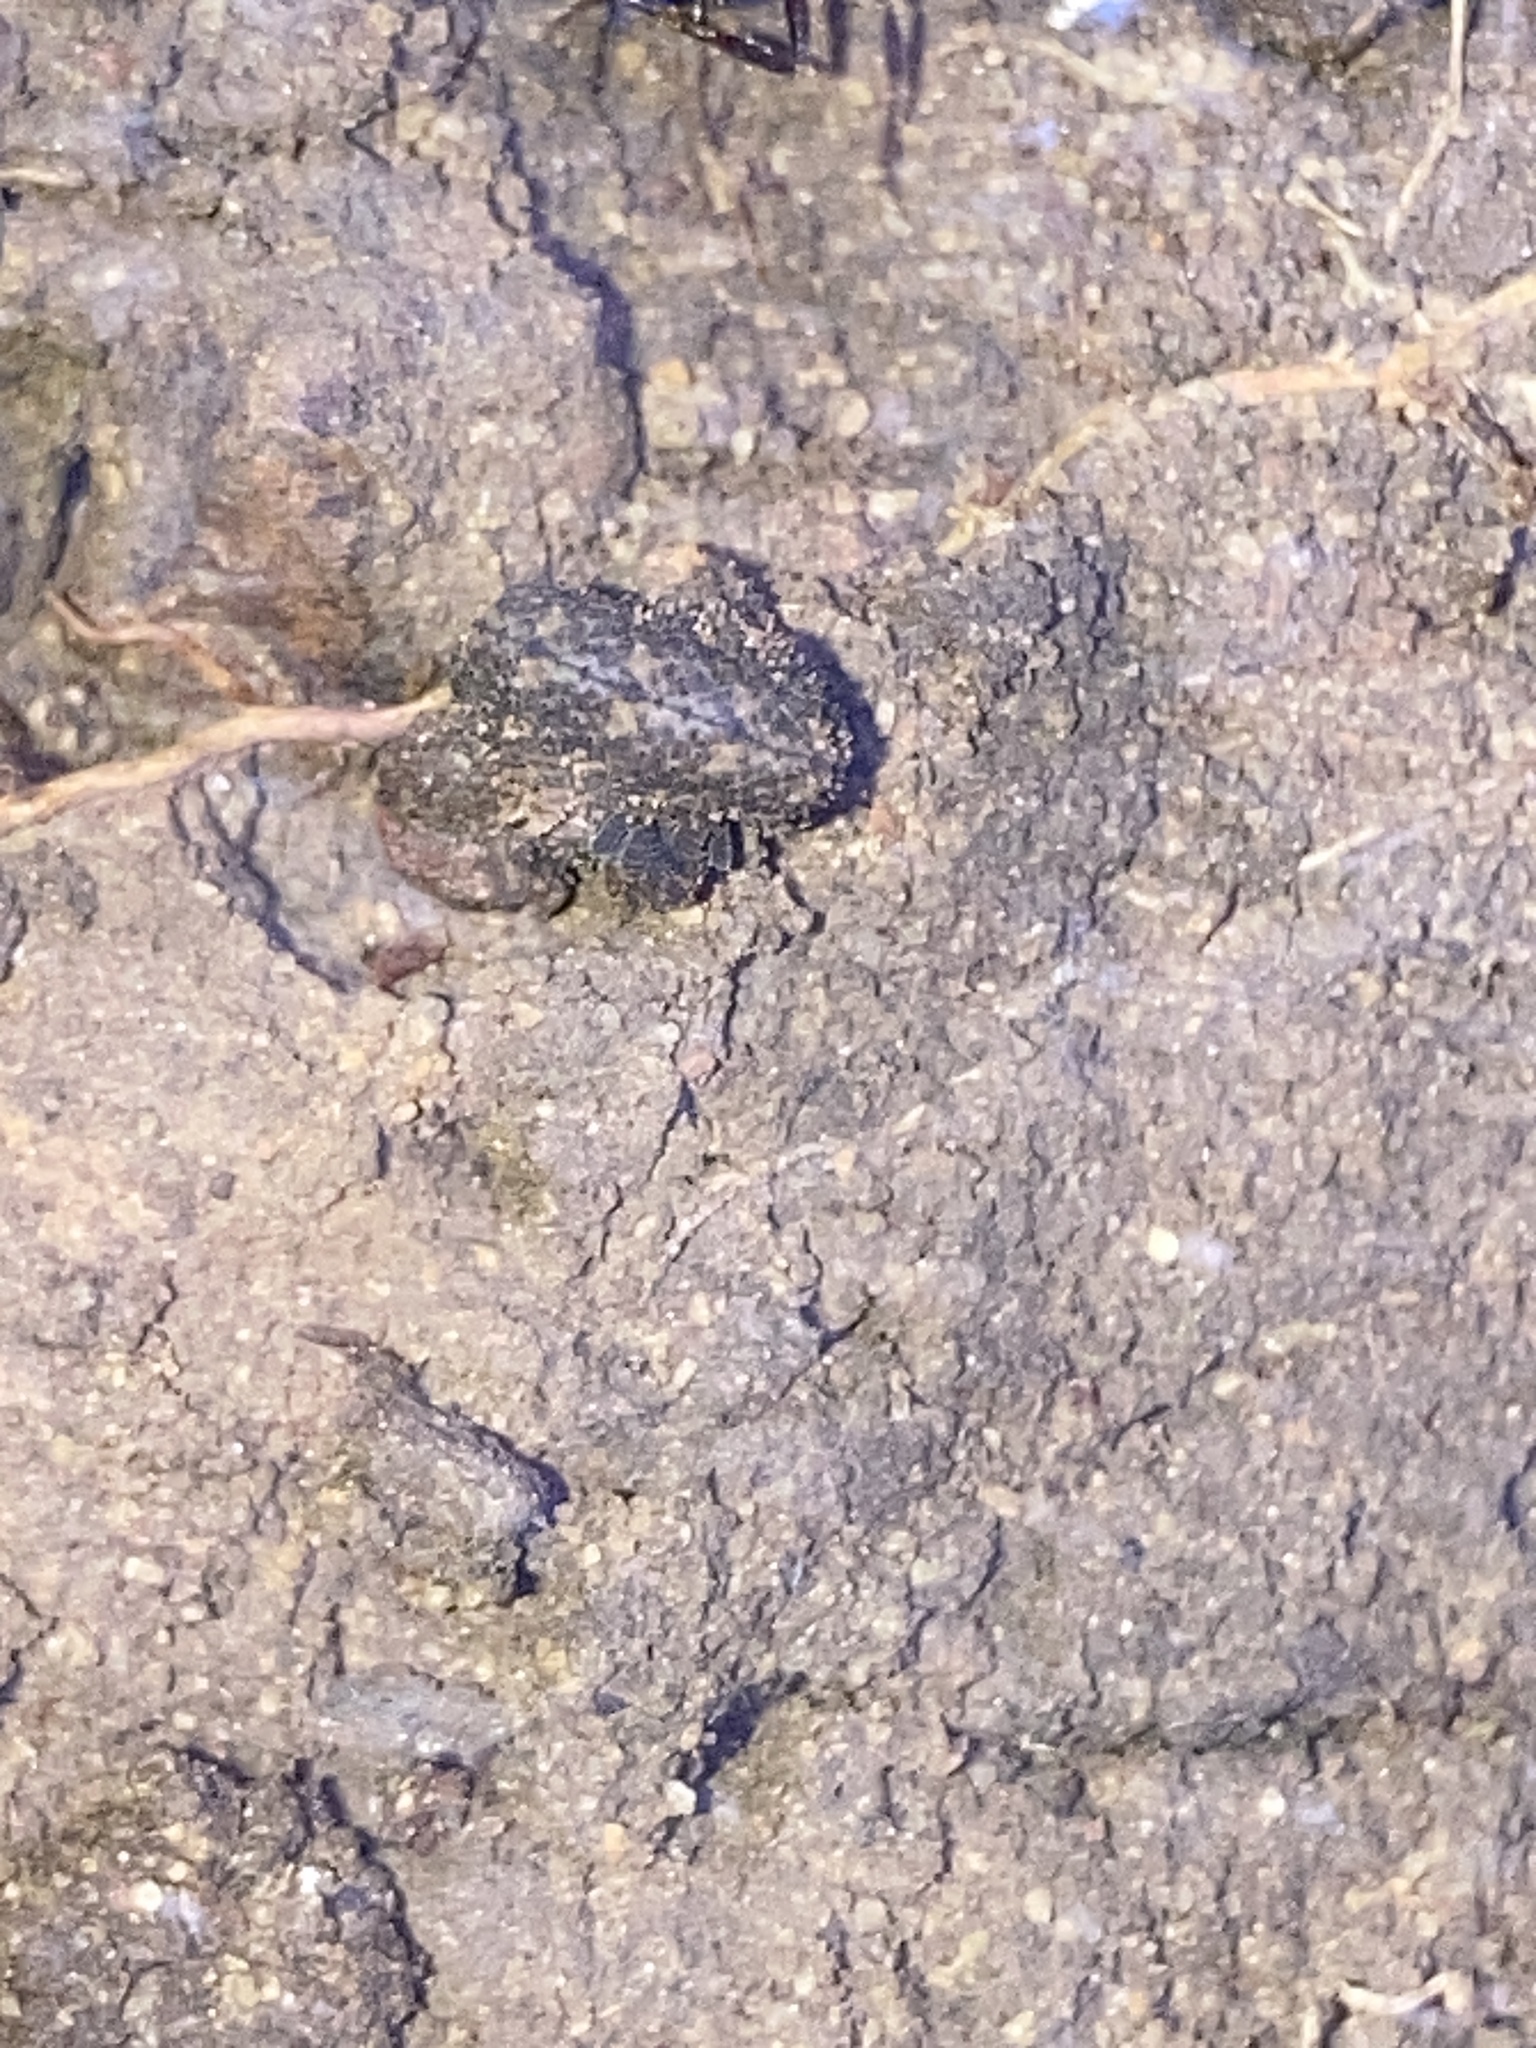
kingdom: Animalia
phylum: Onychophora
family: Peripatopsidae
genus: Anoplokaros
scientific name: Anoplokaros keerensis
